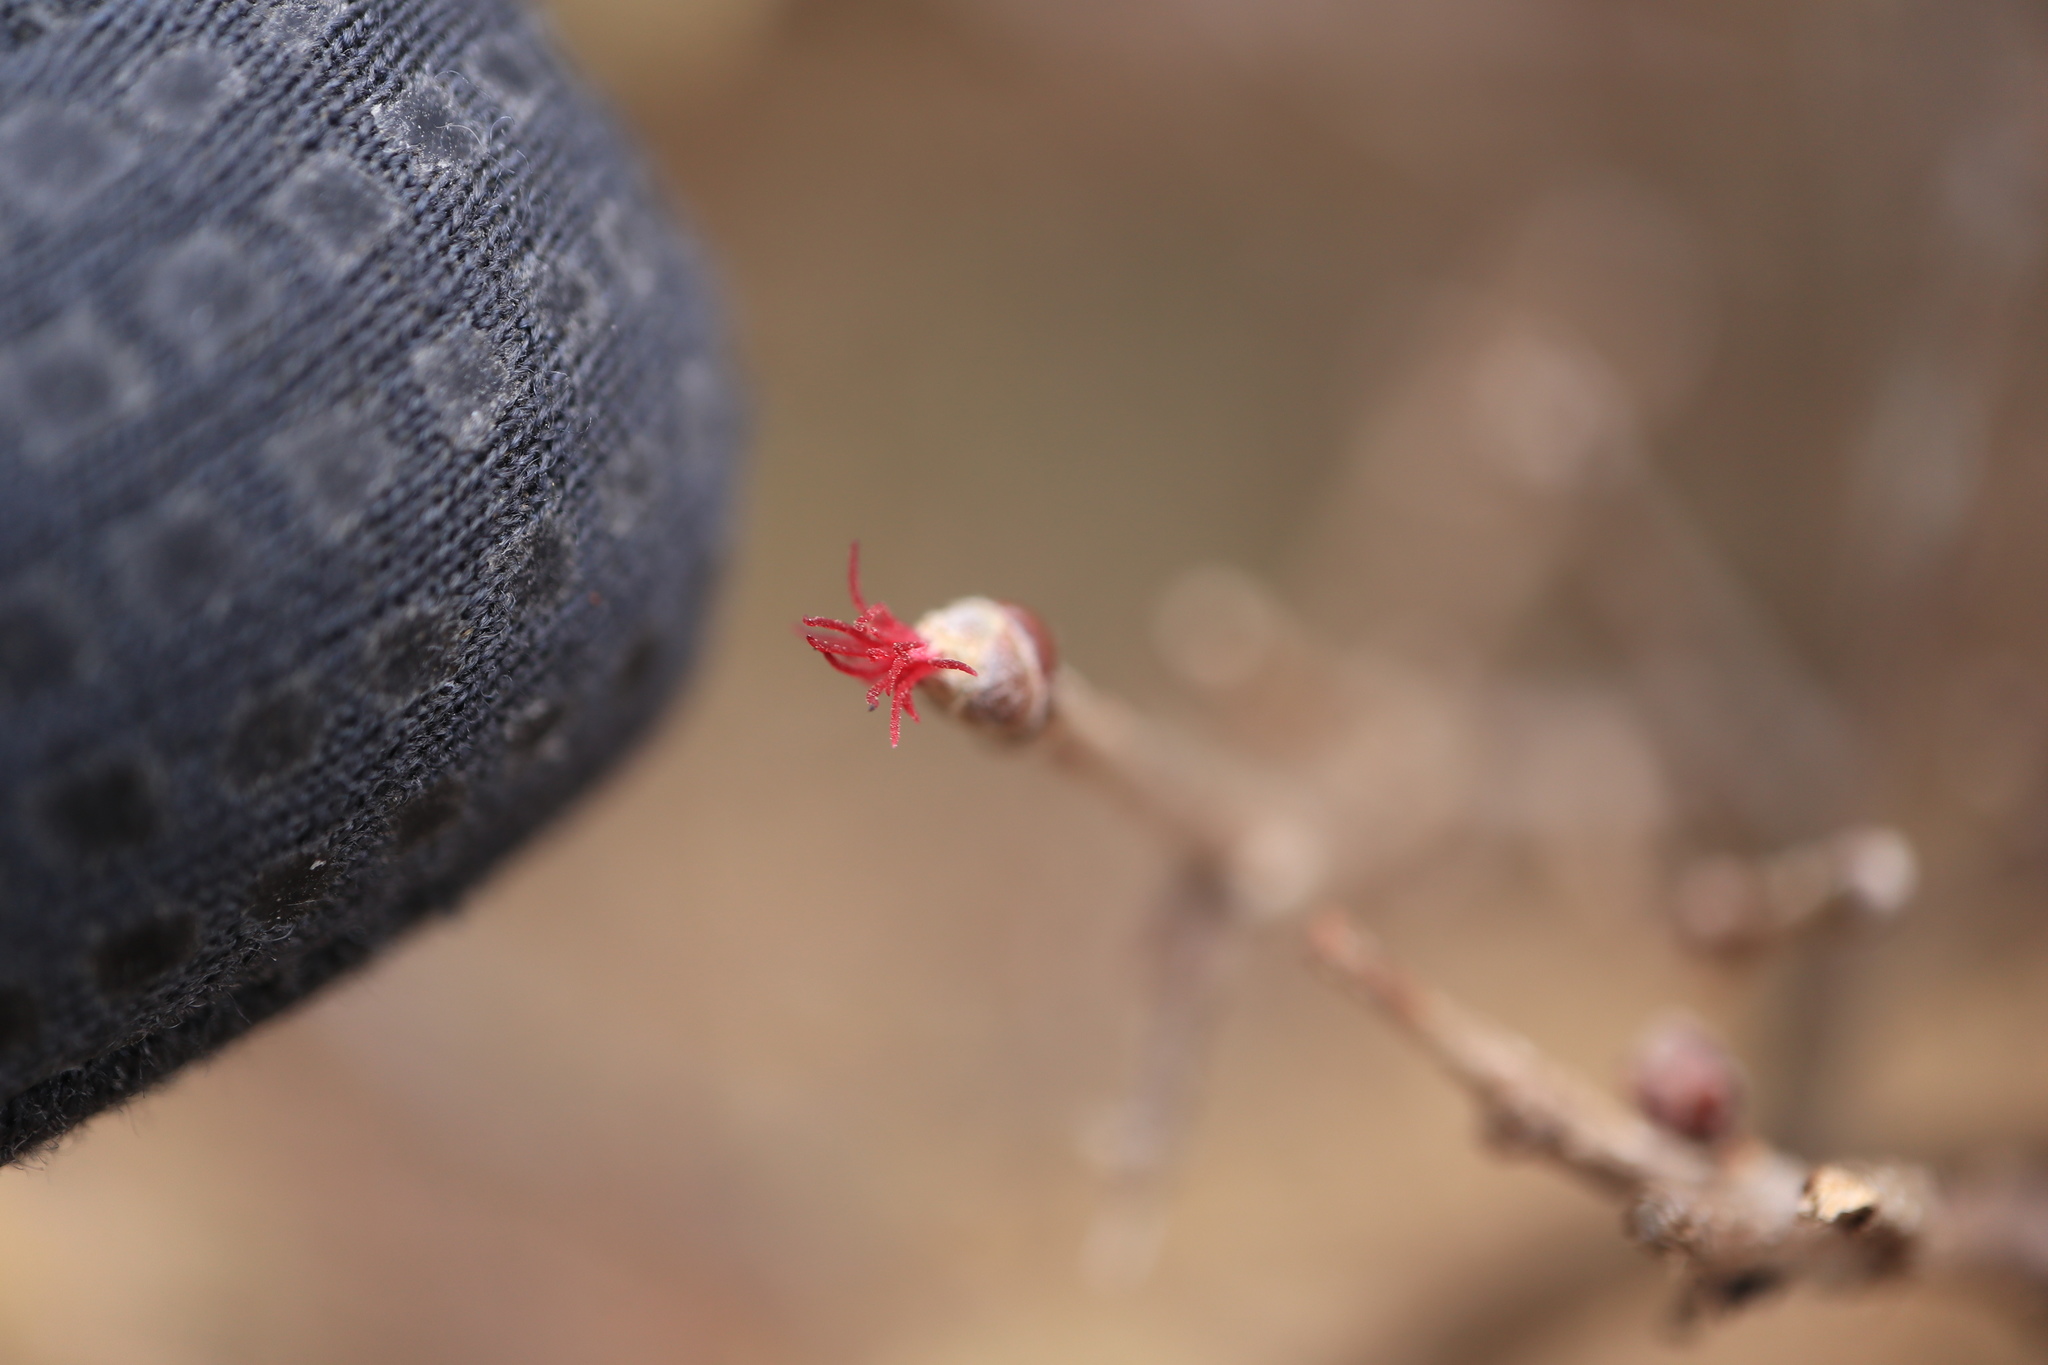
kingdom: Plantae
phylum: Tracheophyta
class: Magnoliopsida
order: Fagales
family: Betulaceae
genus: Corylus
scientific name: Corylus avellana
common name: European hazel
